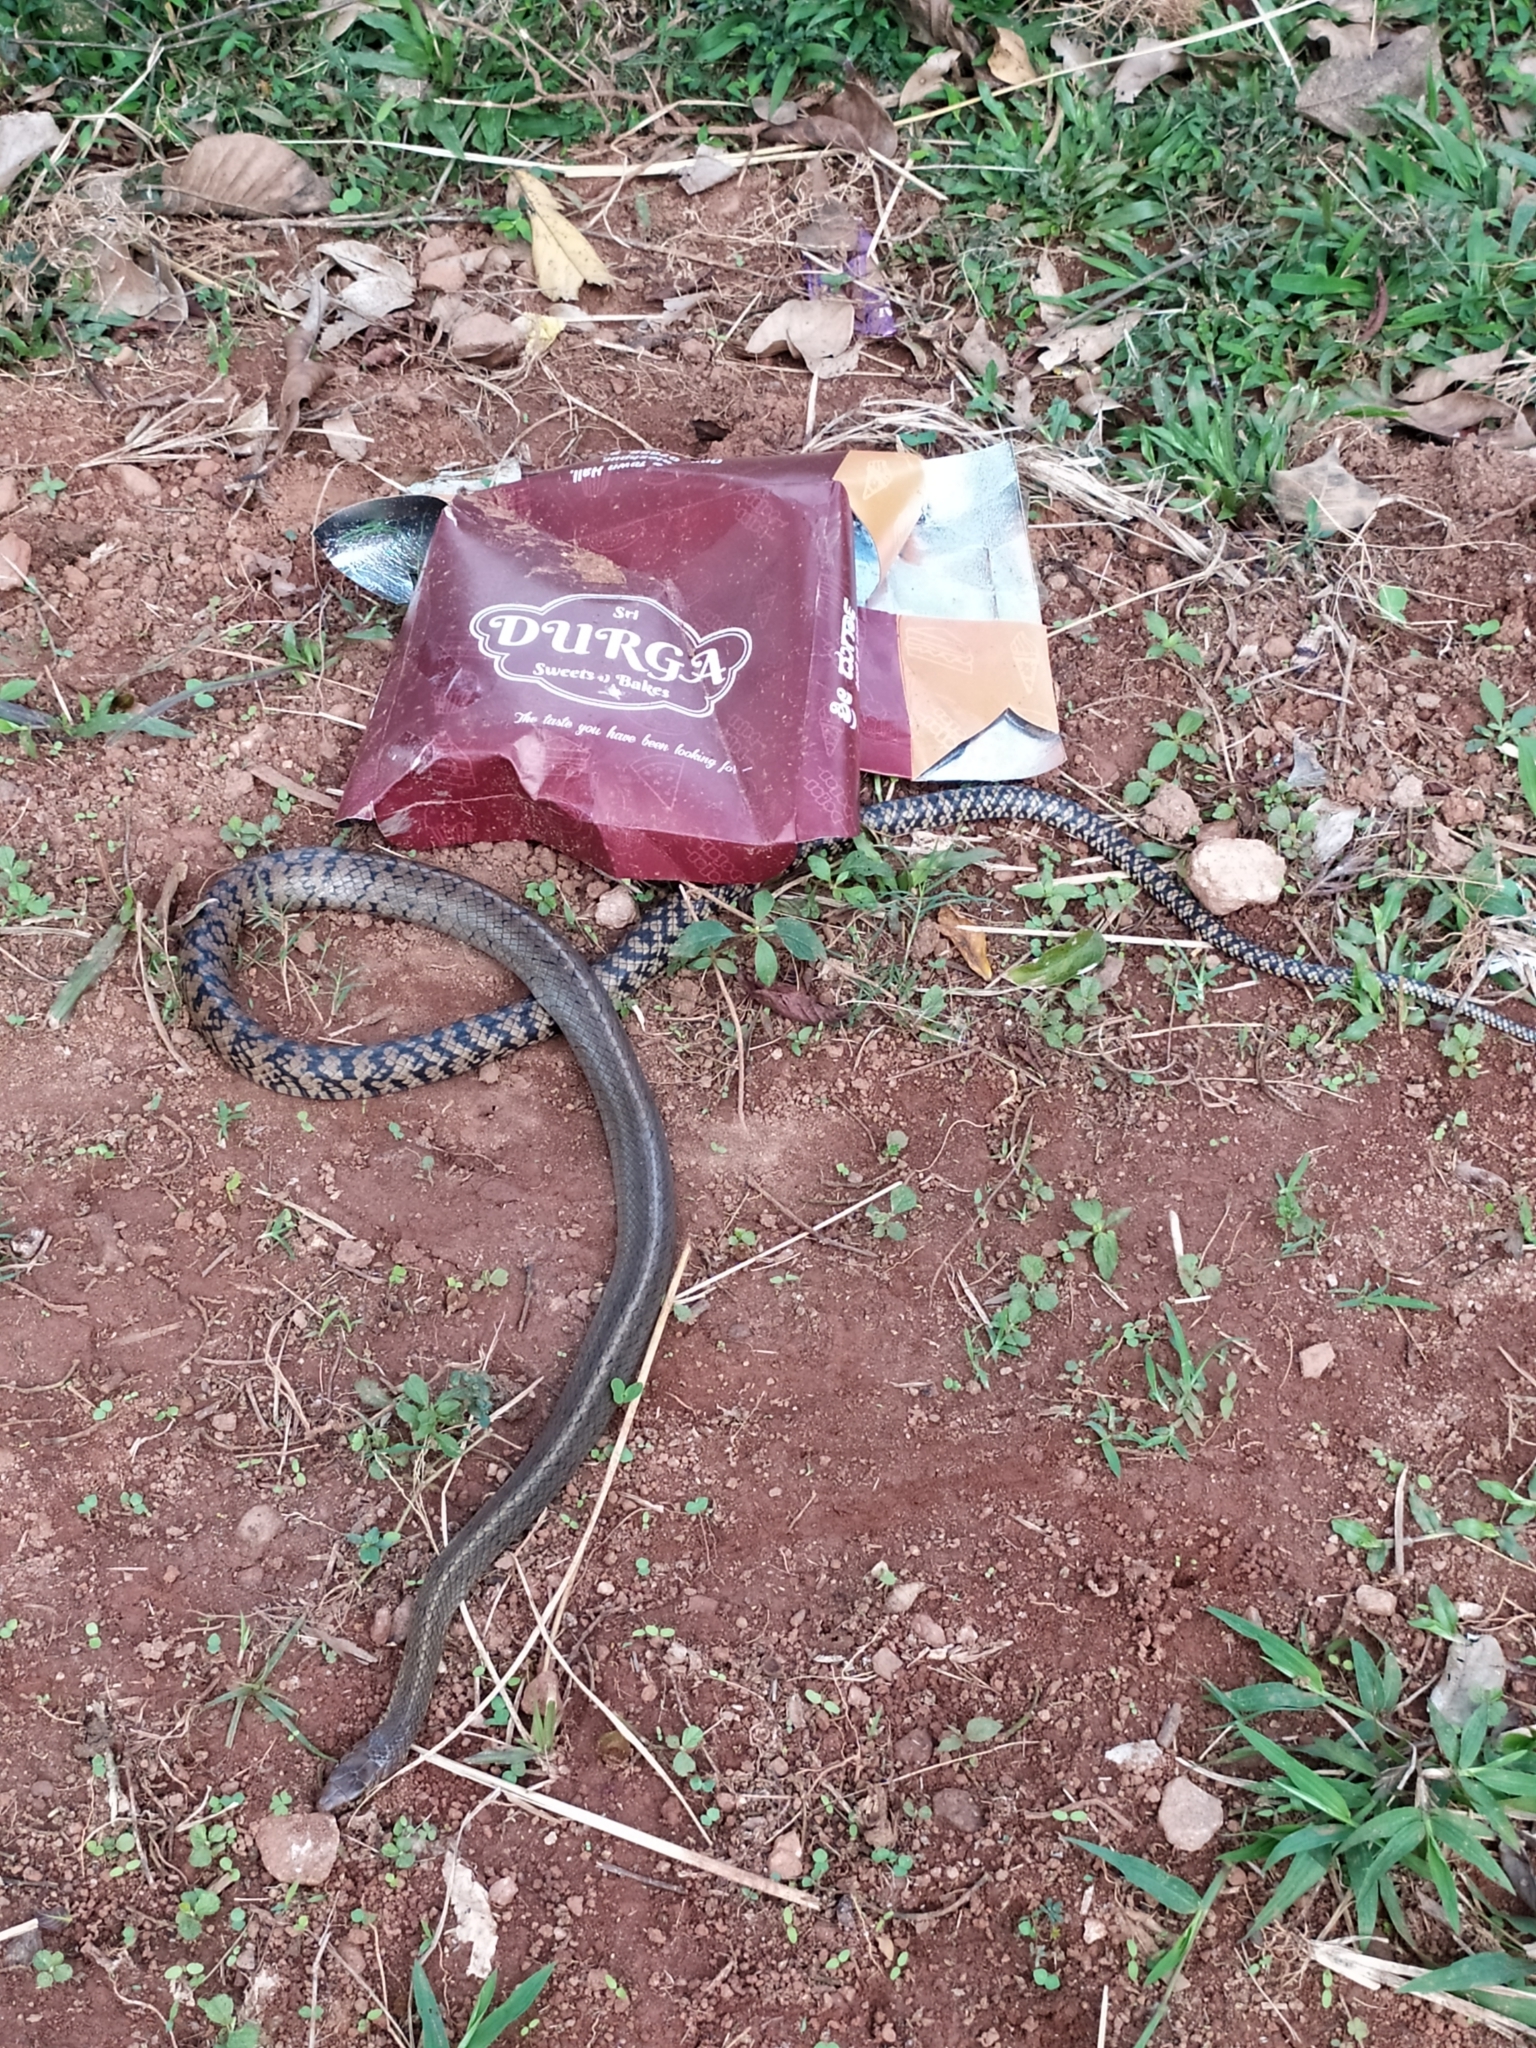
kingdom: Animalia
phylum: Chordata
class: Squamata
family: Colubridae
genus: Ptyas
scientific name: Ptyas mucosa
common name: Oriental ratsnake
